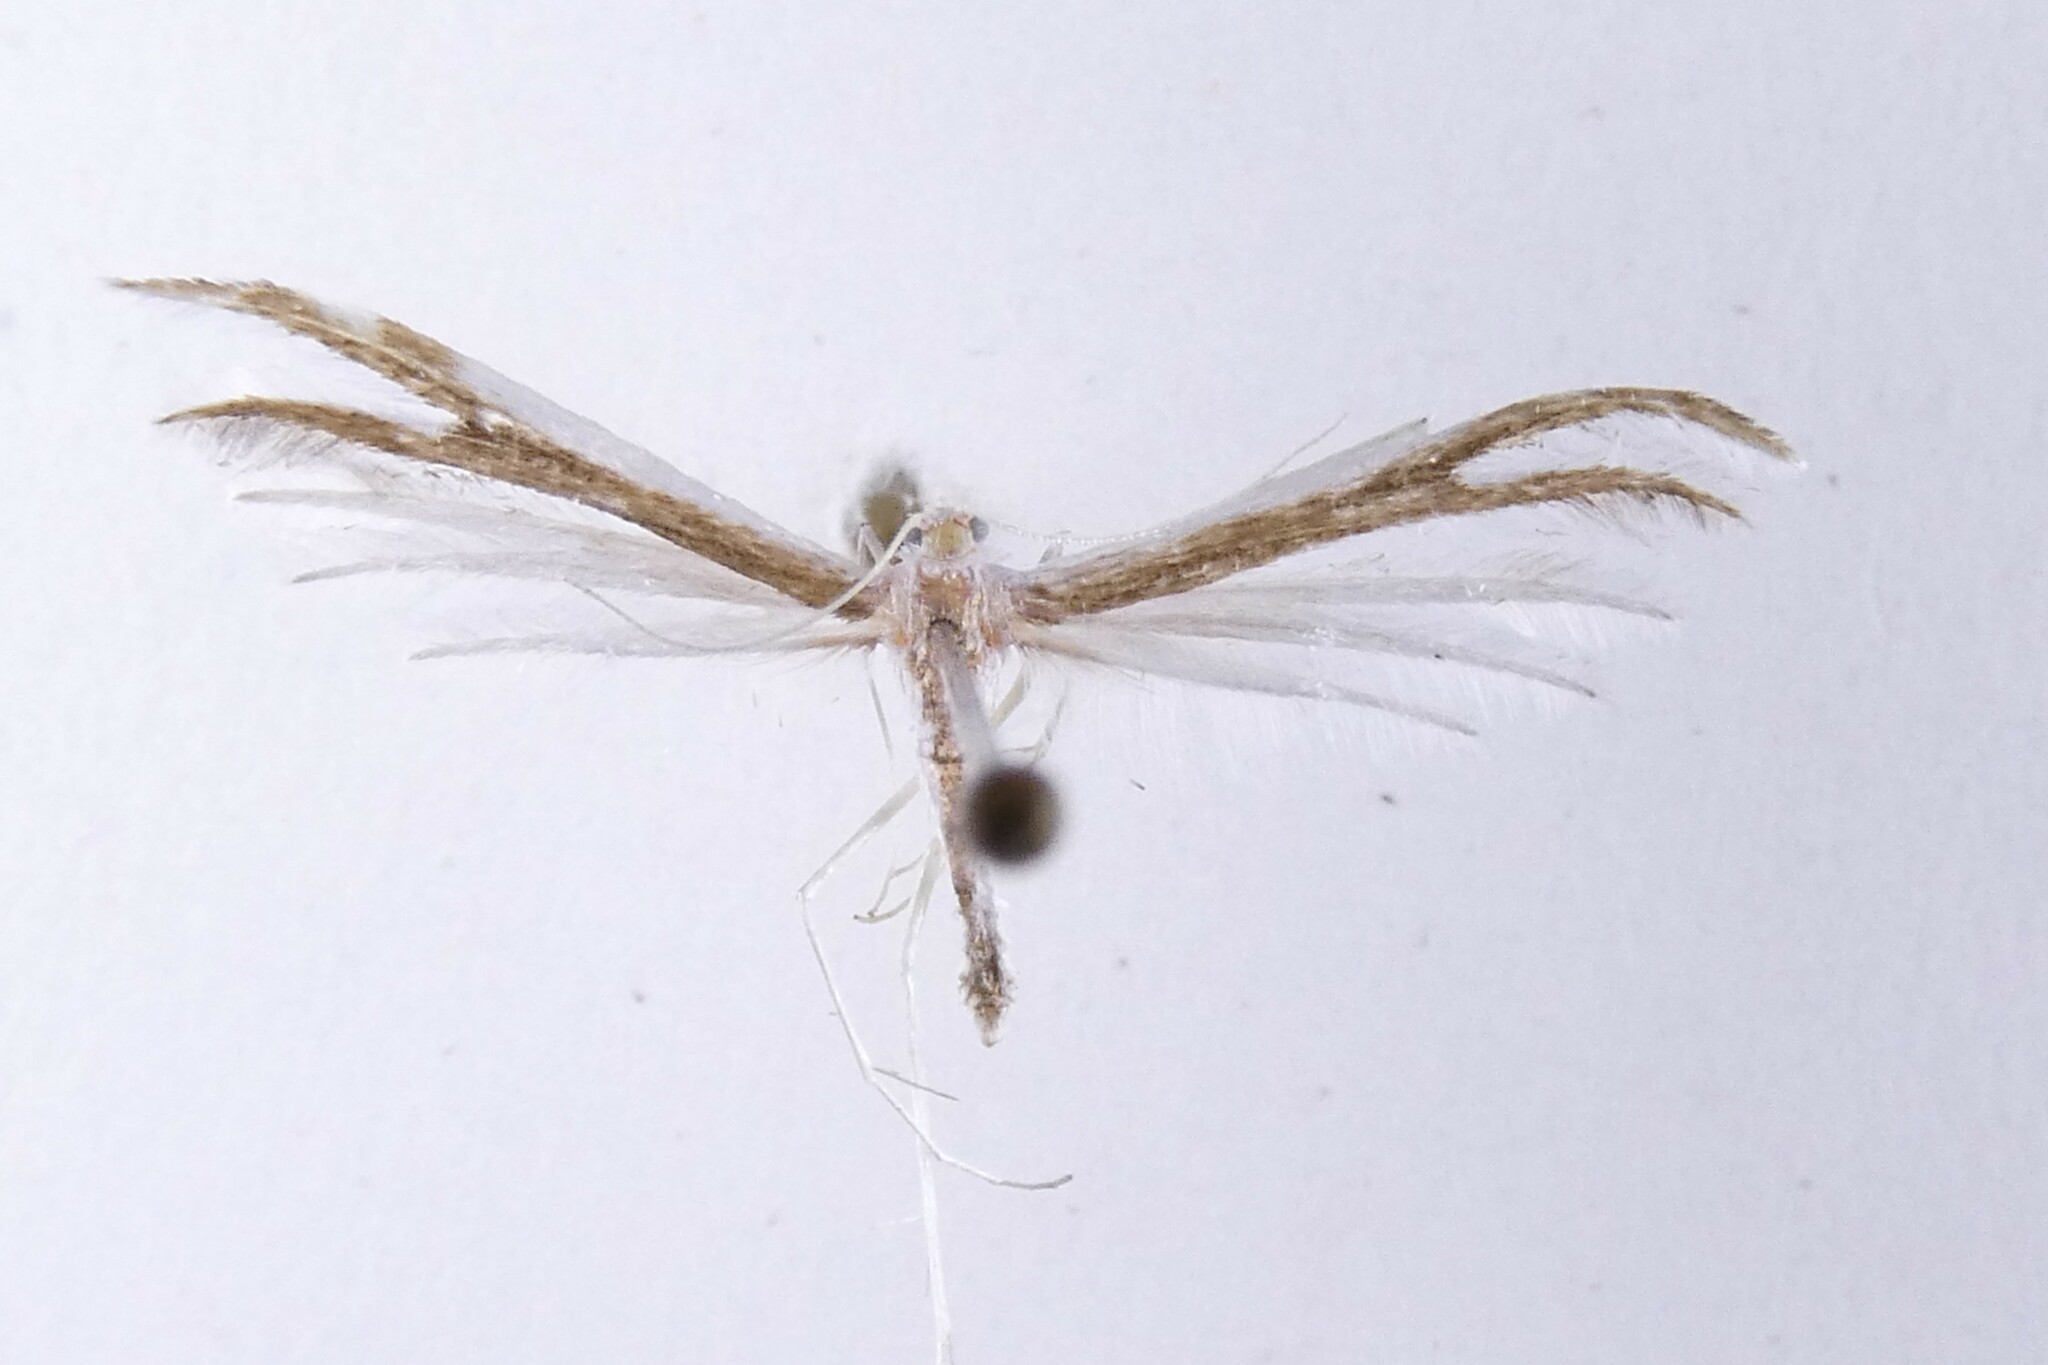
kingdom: Animalia
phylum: Arthropoda
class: Insecta
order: Lepidoptera
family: Pterophoridae
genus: Pterophorus
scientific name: Pterophorus furcatalis
